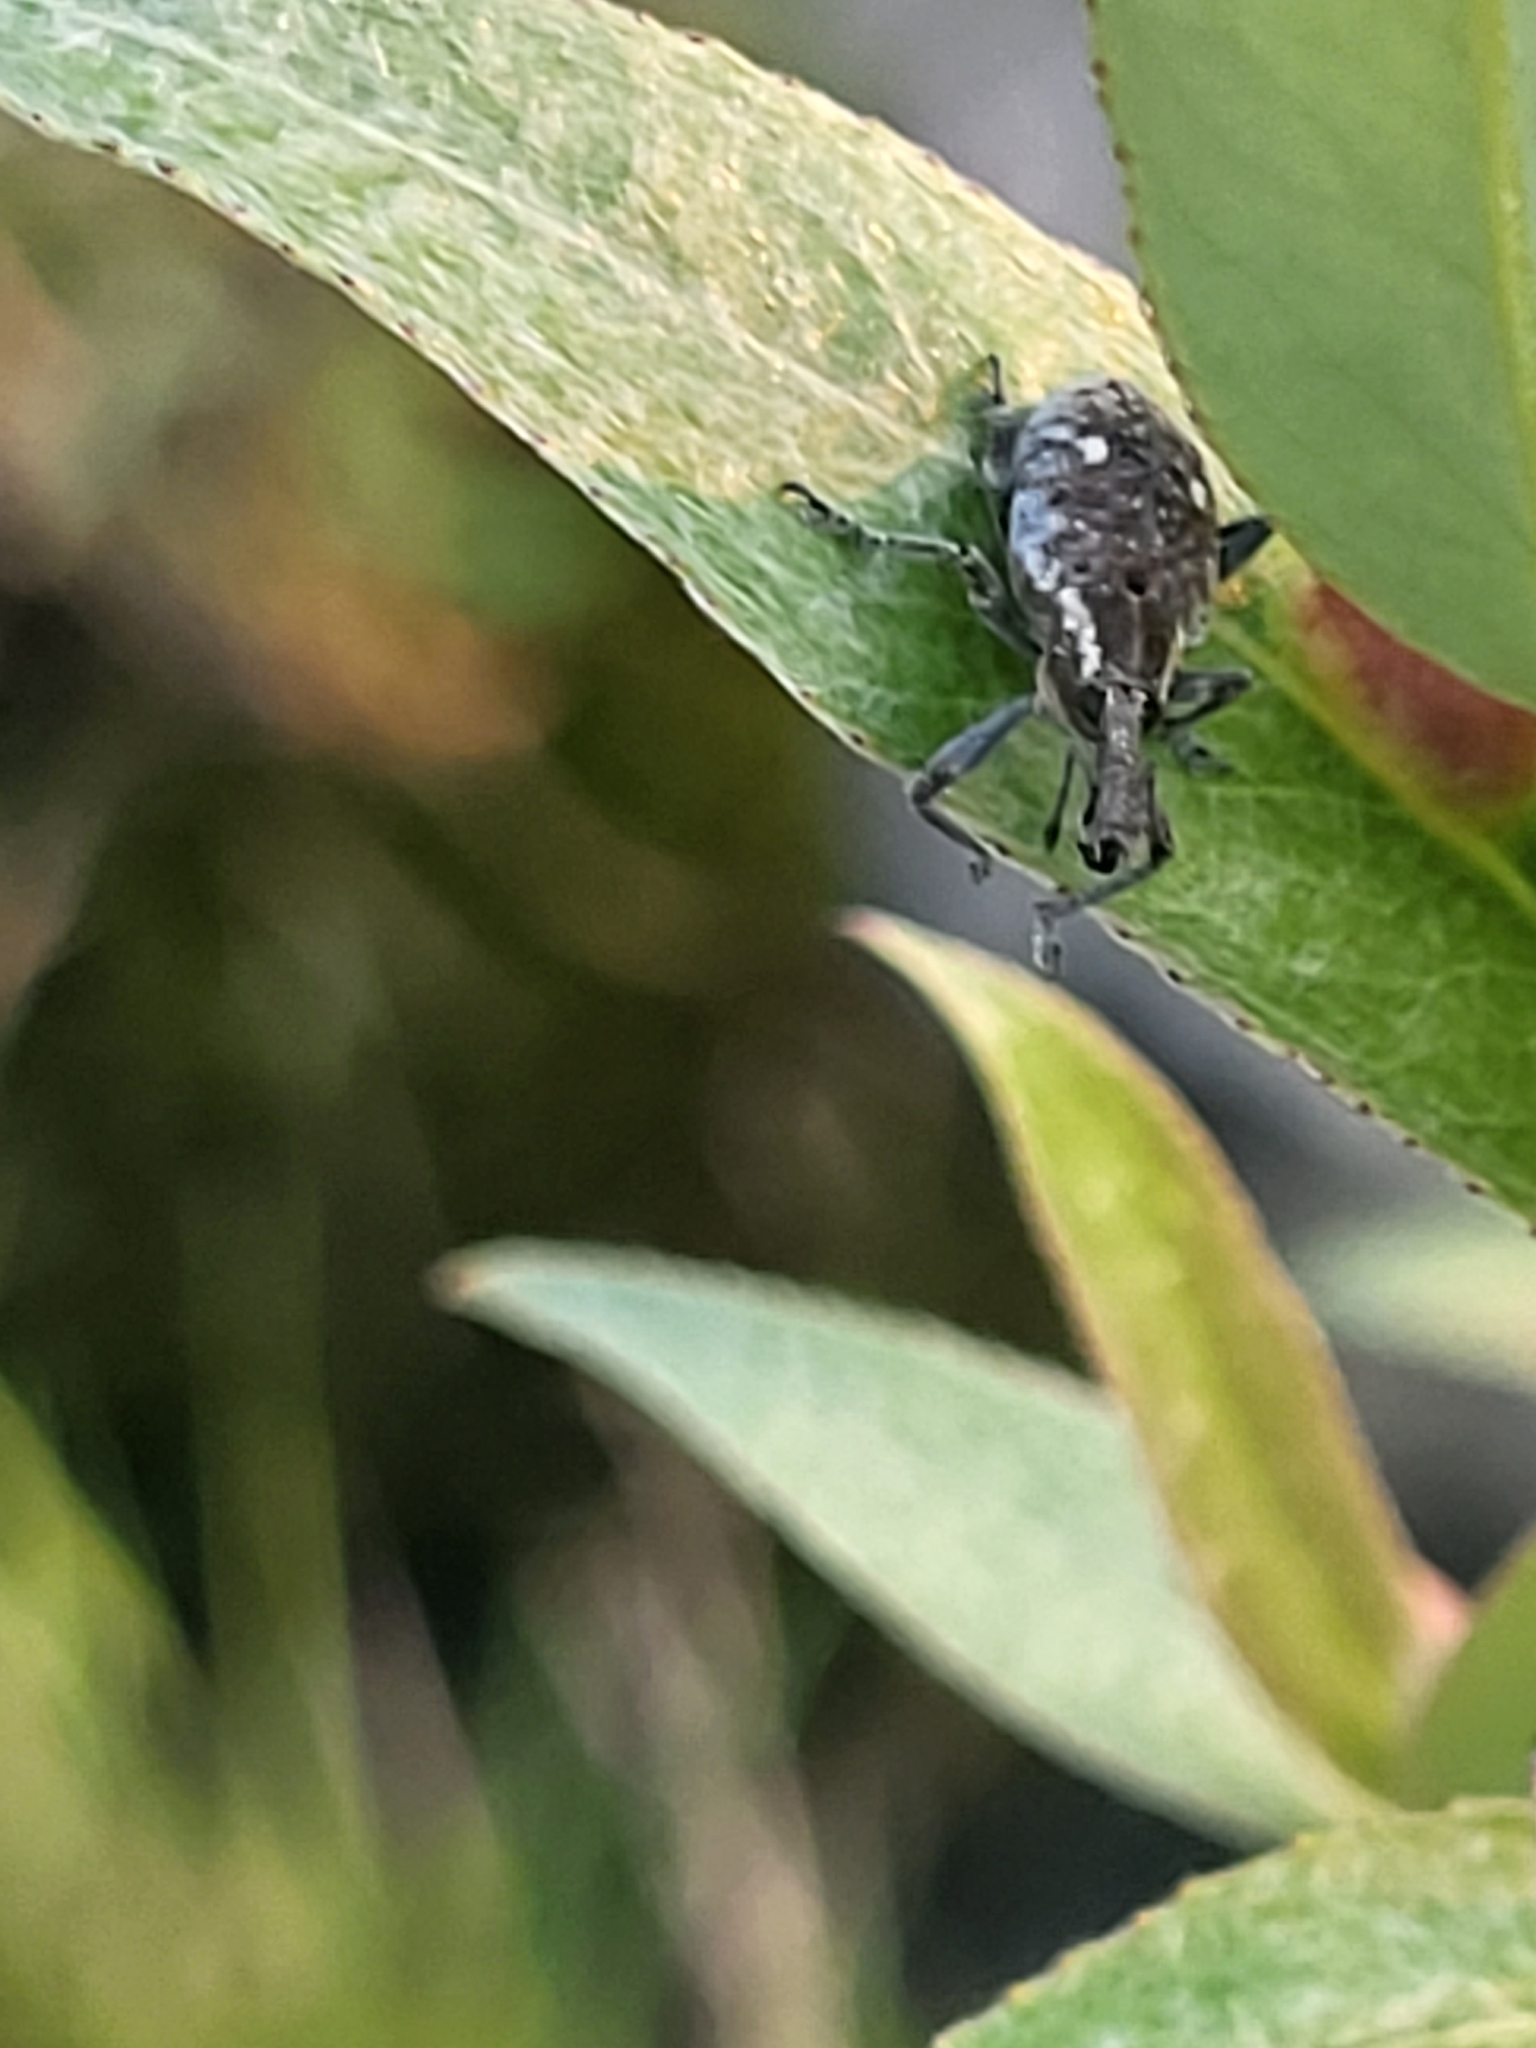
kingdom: Animalia
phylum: Arthropoda
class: Insecta
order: Coleoptera
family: Curculionidae
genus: Lepyrus
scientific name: Lepyrus palustris
